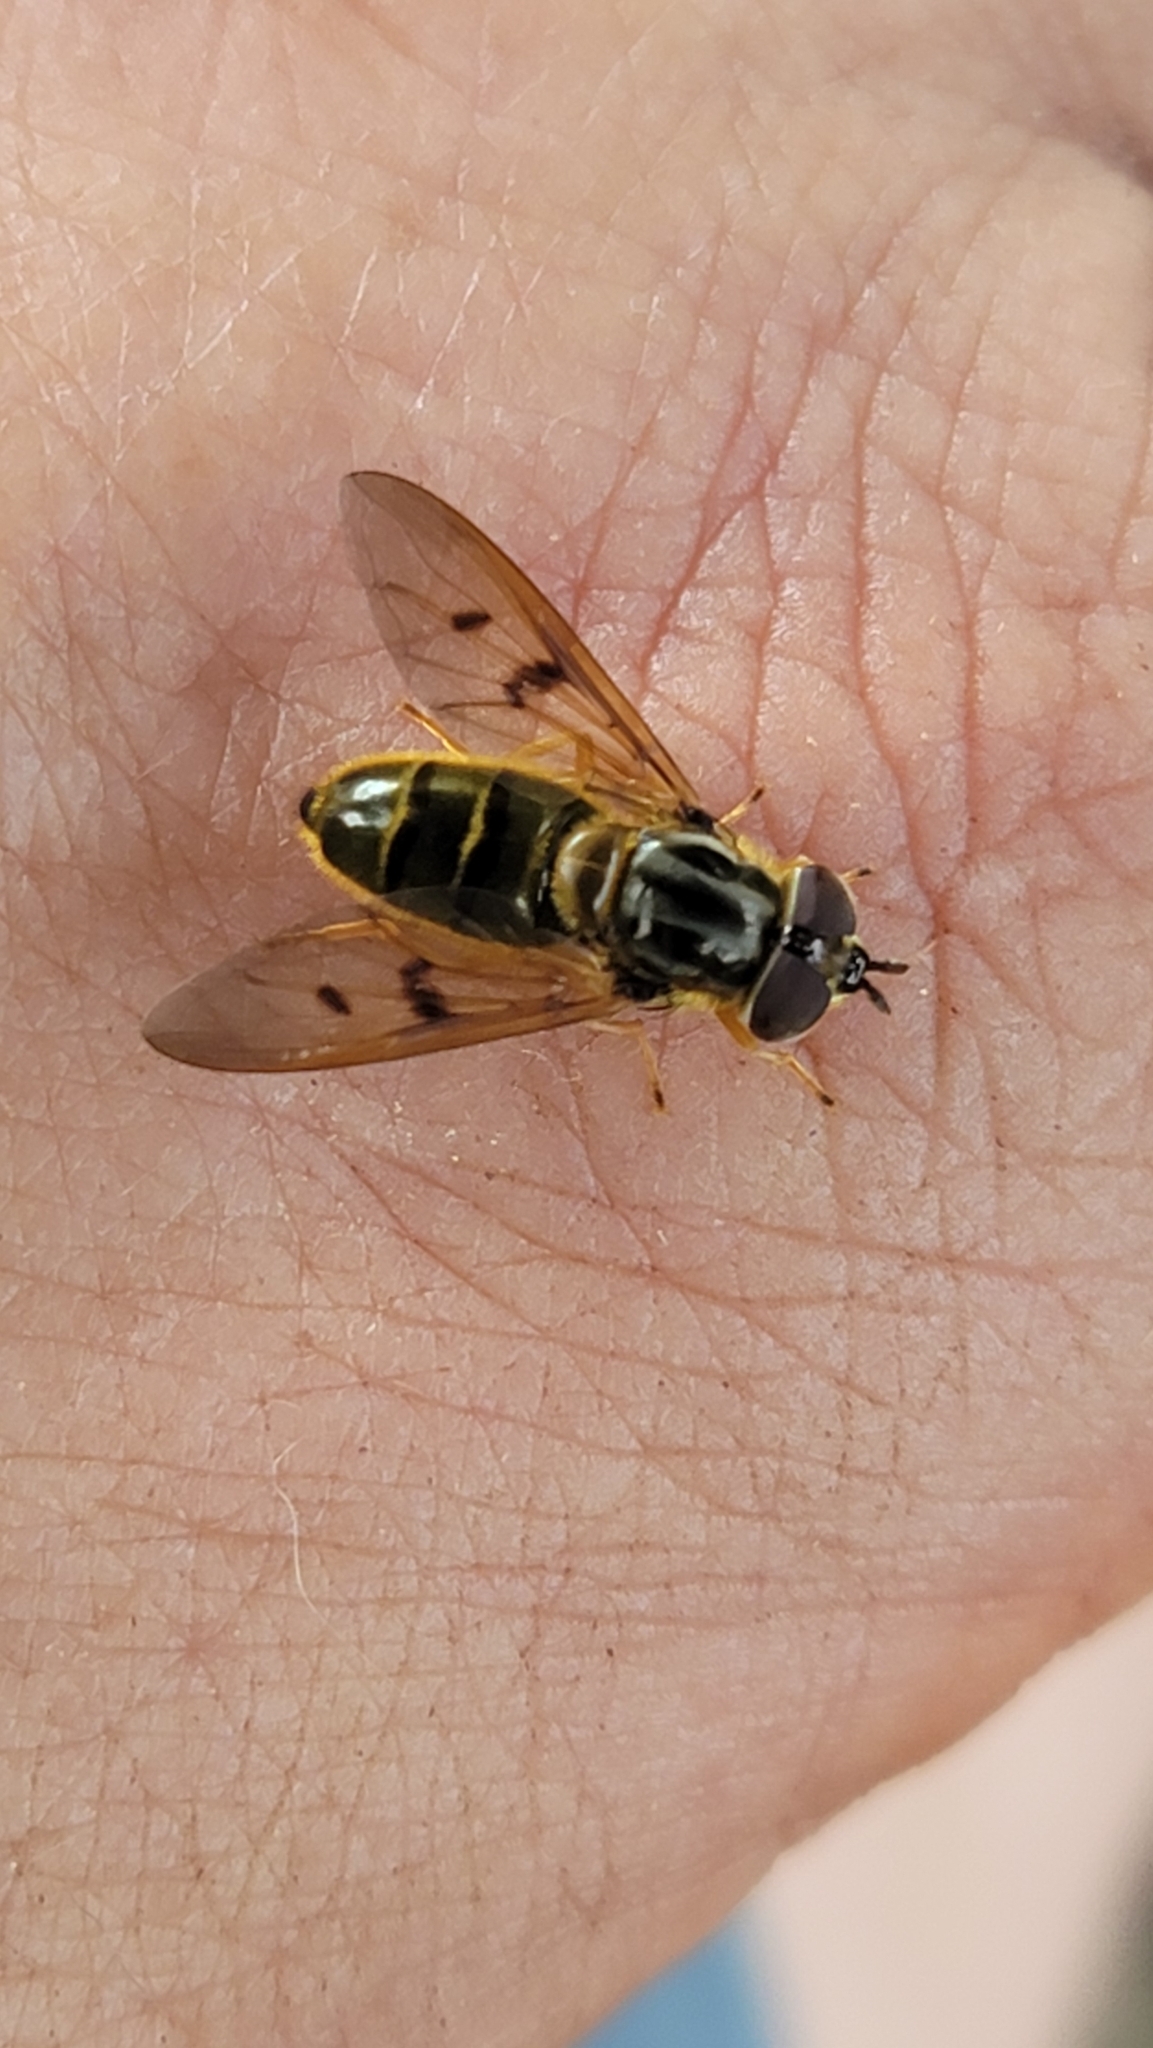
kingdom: Animalia
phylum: Arthropoda
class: Insecta
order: Diptera
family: Syrphidae
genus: Ferdinandea
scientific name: Ferdinandea buccata
